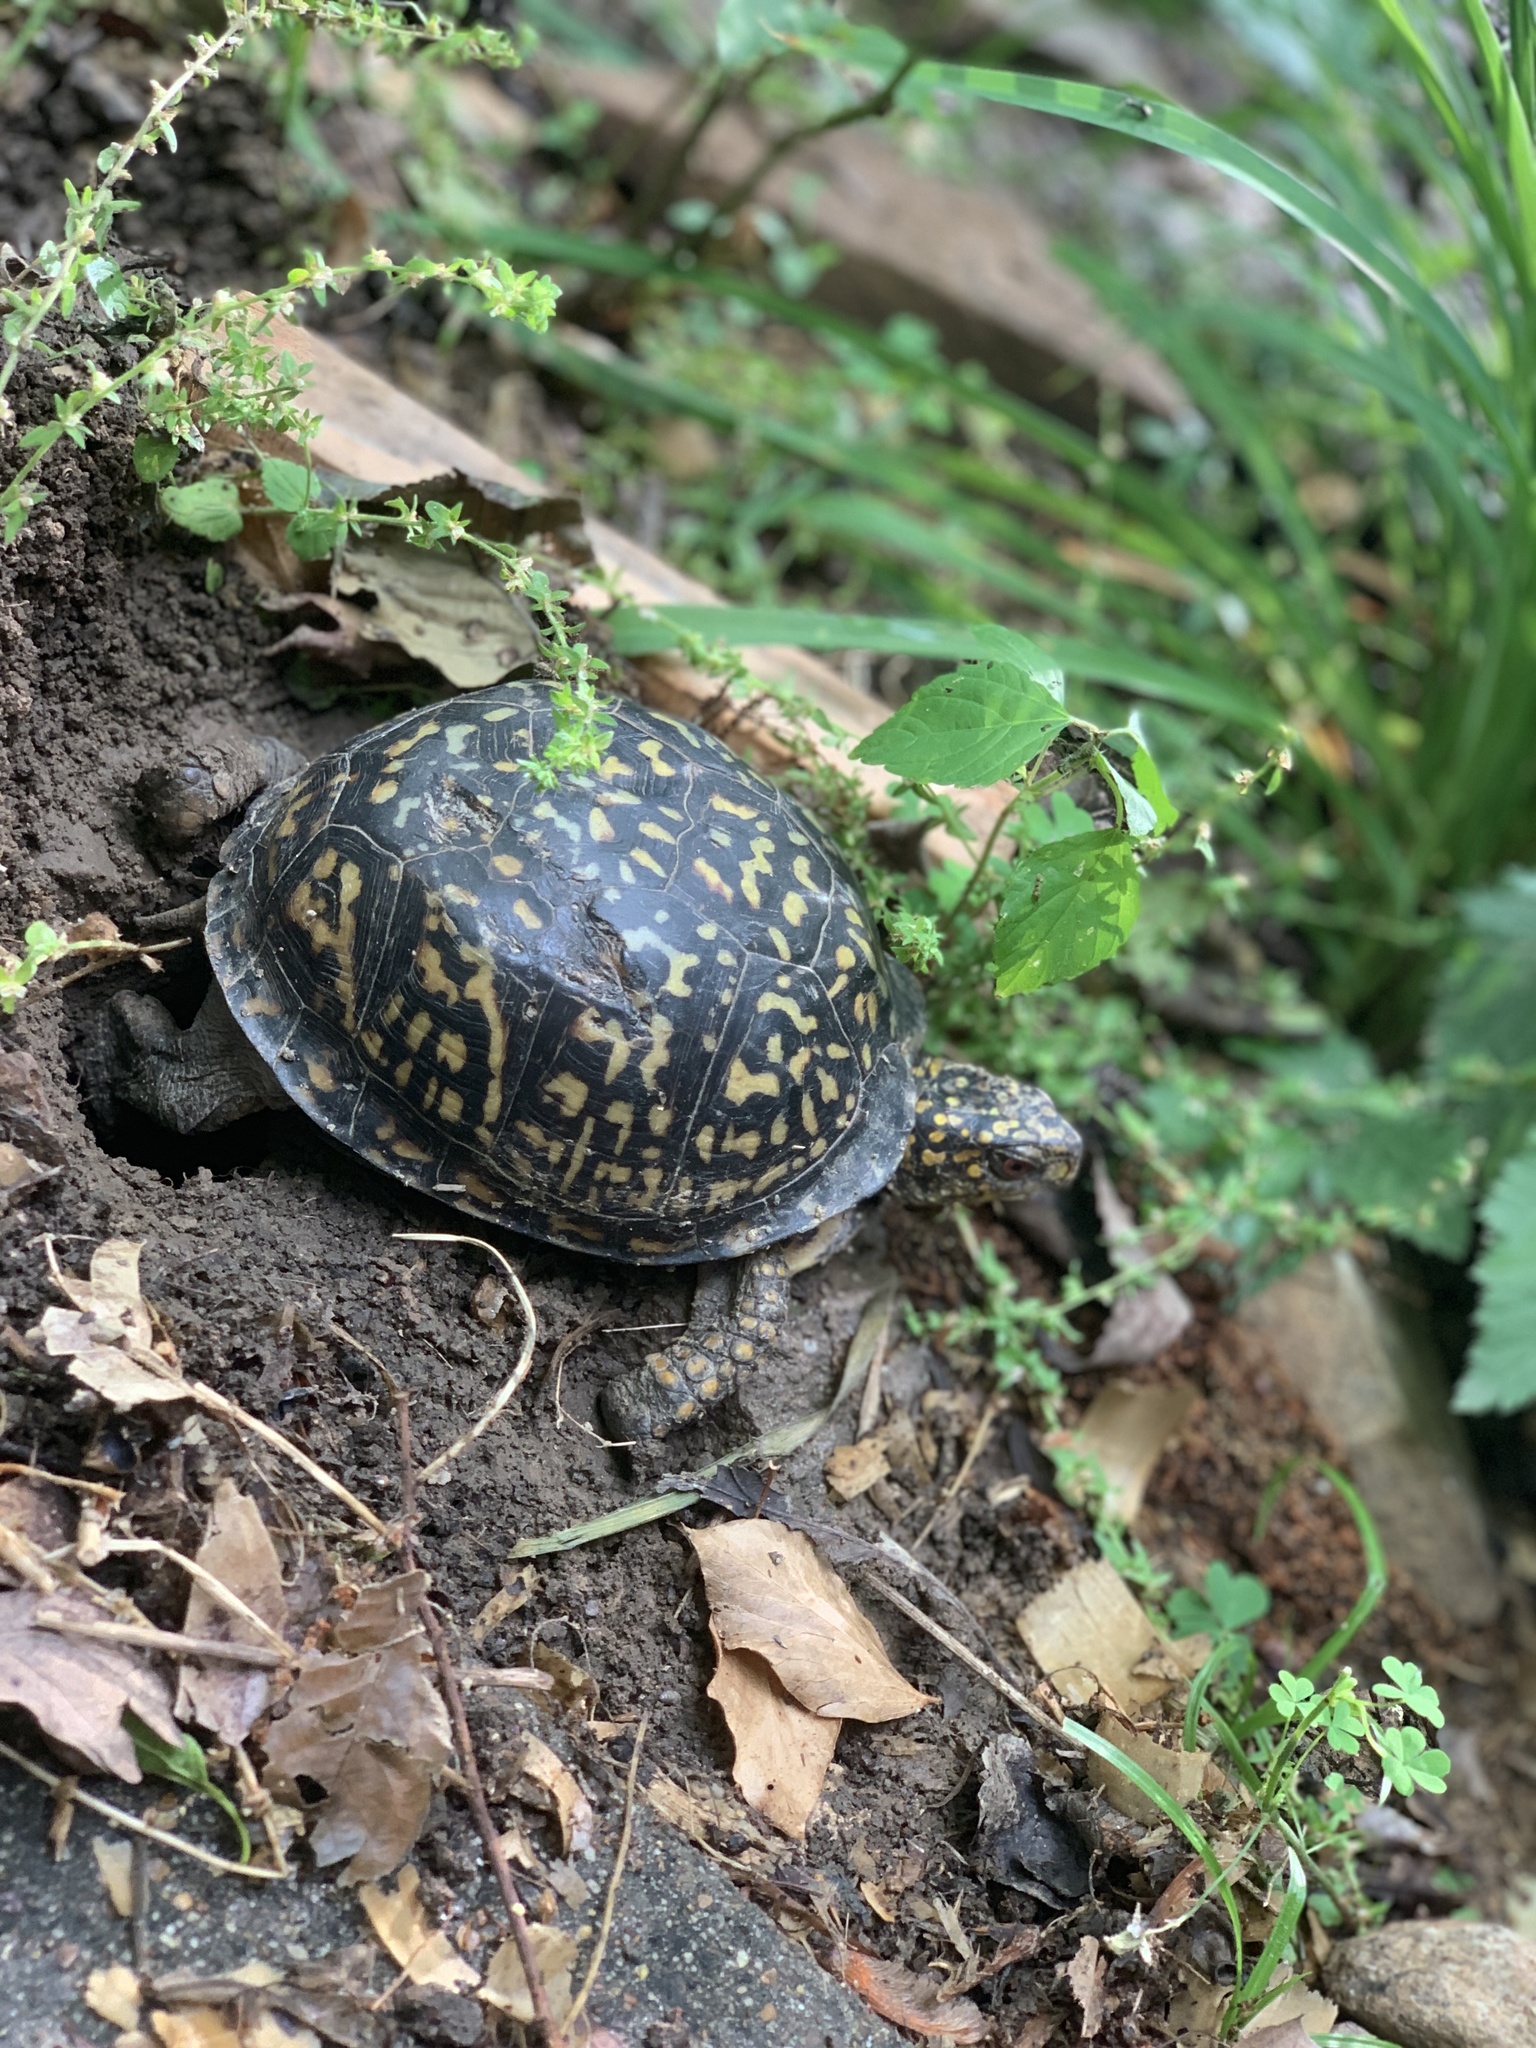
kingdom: Animalia
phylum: Chordata
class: Testudines
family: Emydidae
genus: Terrapene
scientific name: Terrapene carolina
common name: Common box turtle
